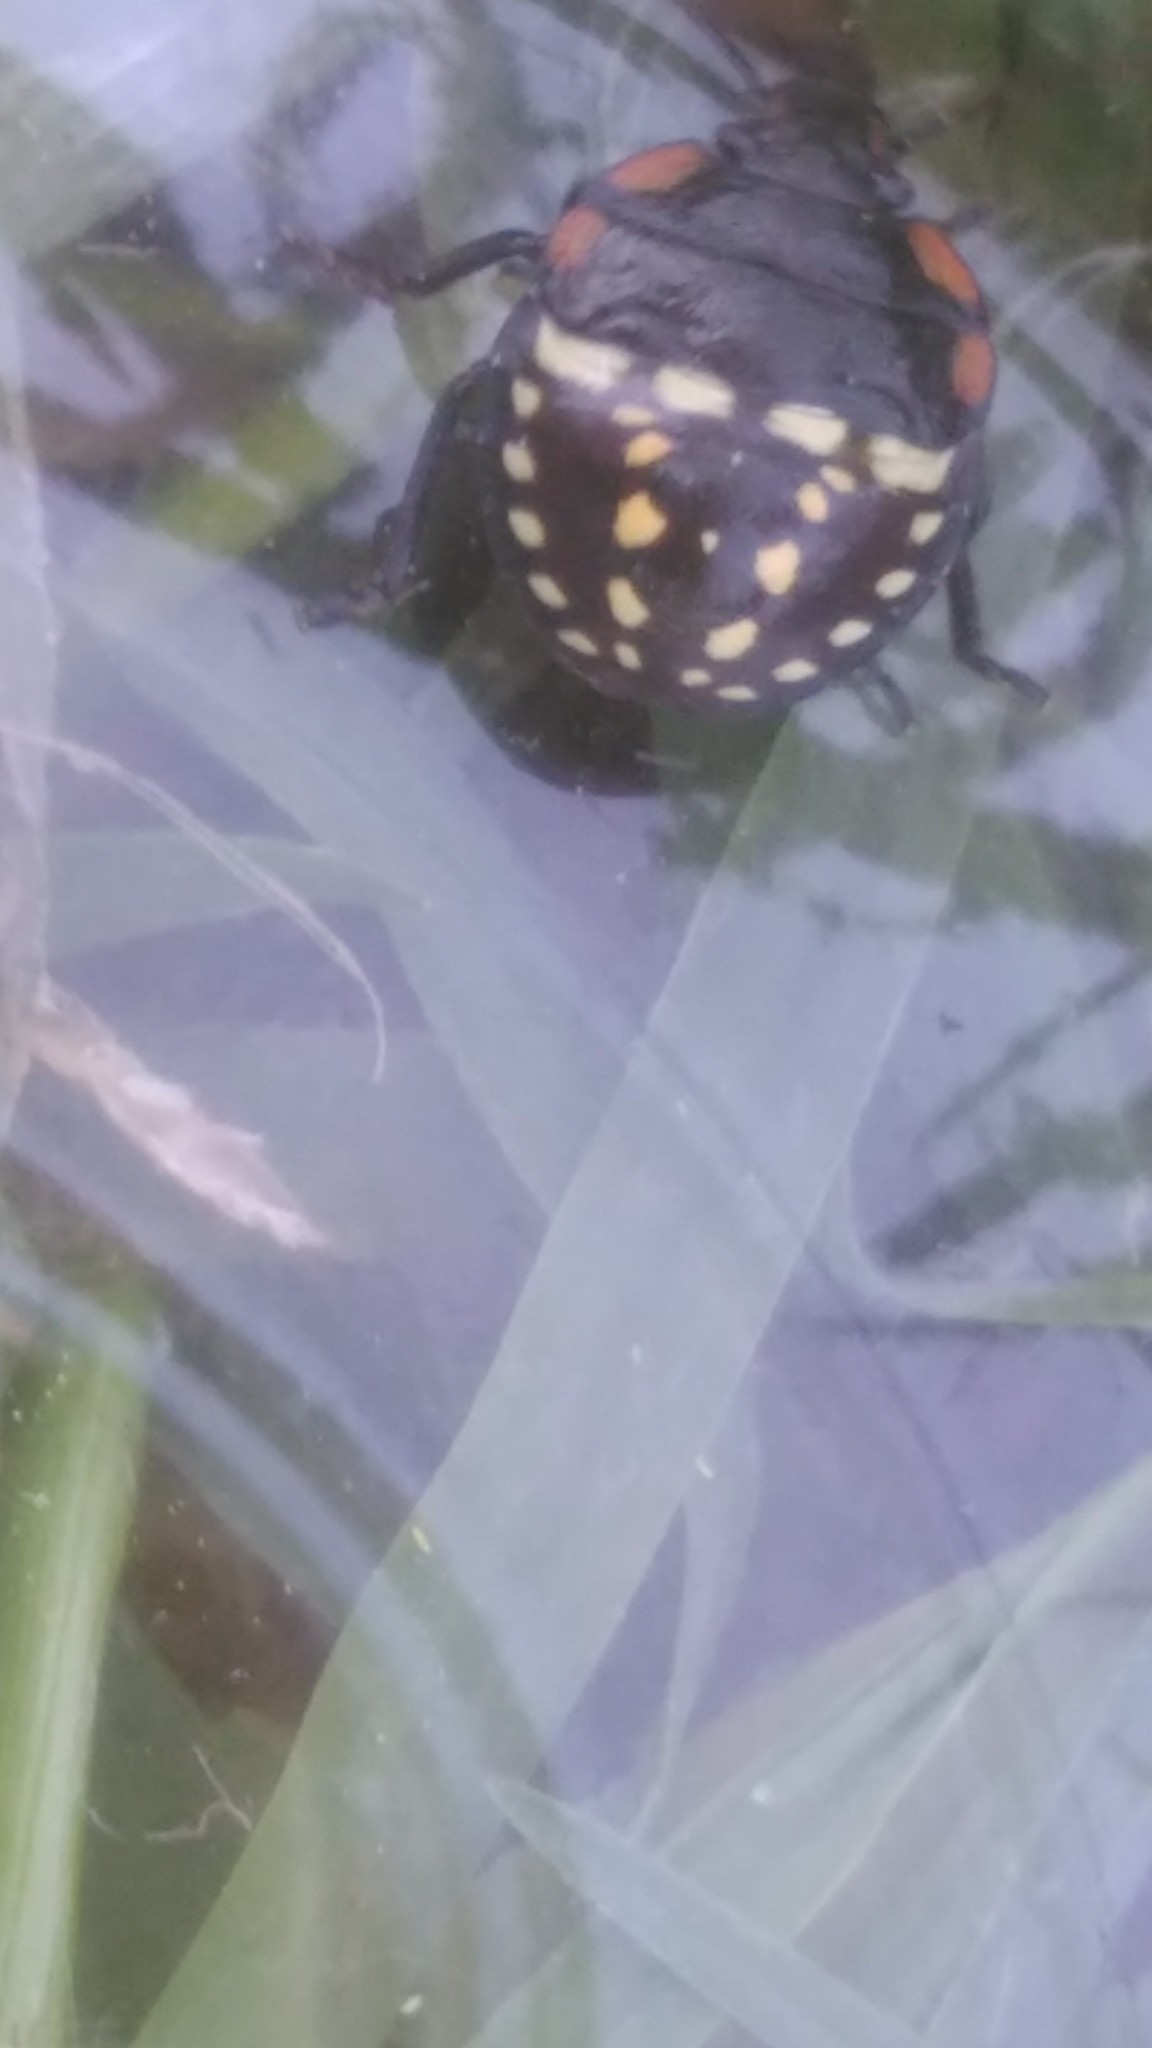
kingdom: Animalia
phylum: Arthropoda
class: Insecta
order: Hemiptera
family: Pentatomidae
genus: Nezara
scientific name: Nezara viridula
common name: Southern green stink bug
